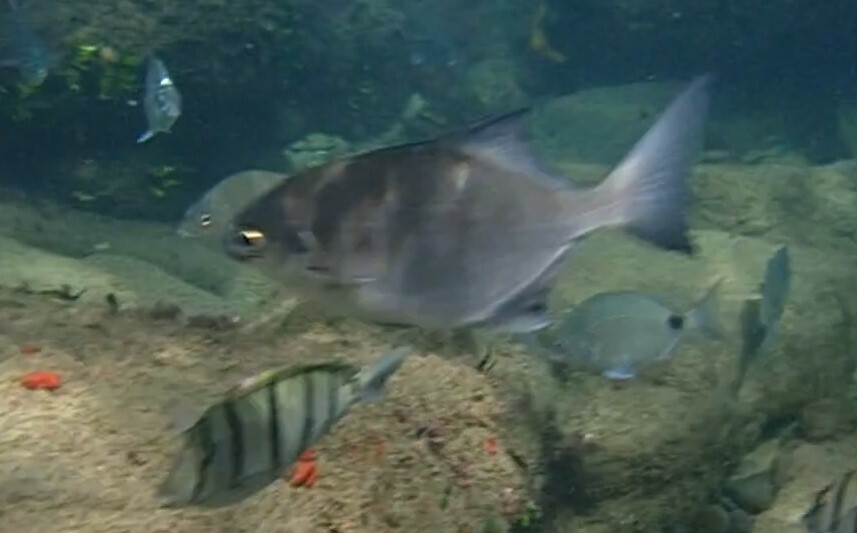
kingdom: Animalia
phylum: Chordata
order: Perciformes
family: Kyphosidae
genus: Neoscorpis
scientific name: Neoscorpis lithophilus
